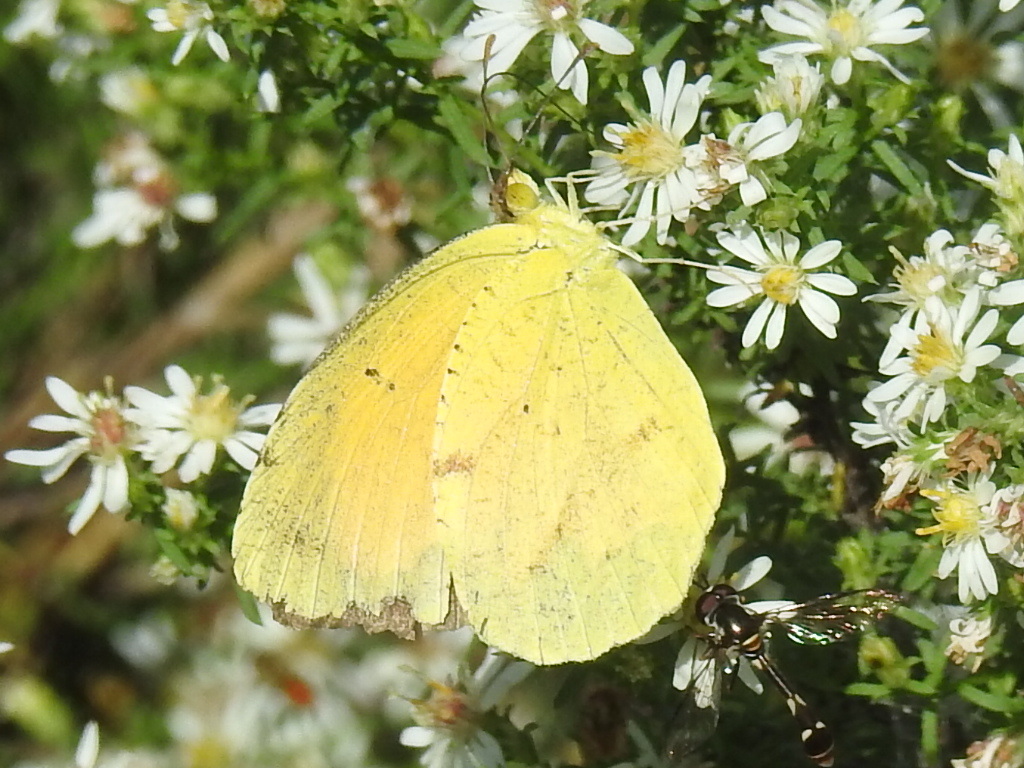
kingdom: Animalia
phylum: Arthropoda
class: Insecta
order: Lepidoptera
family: Pieridae
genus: Abaeis
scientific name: Abaeis nicippe
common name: Sleepy orange
